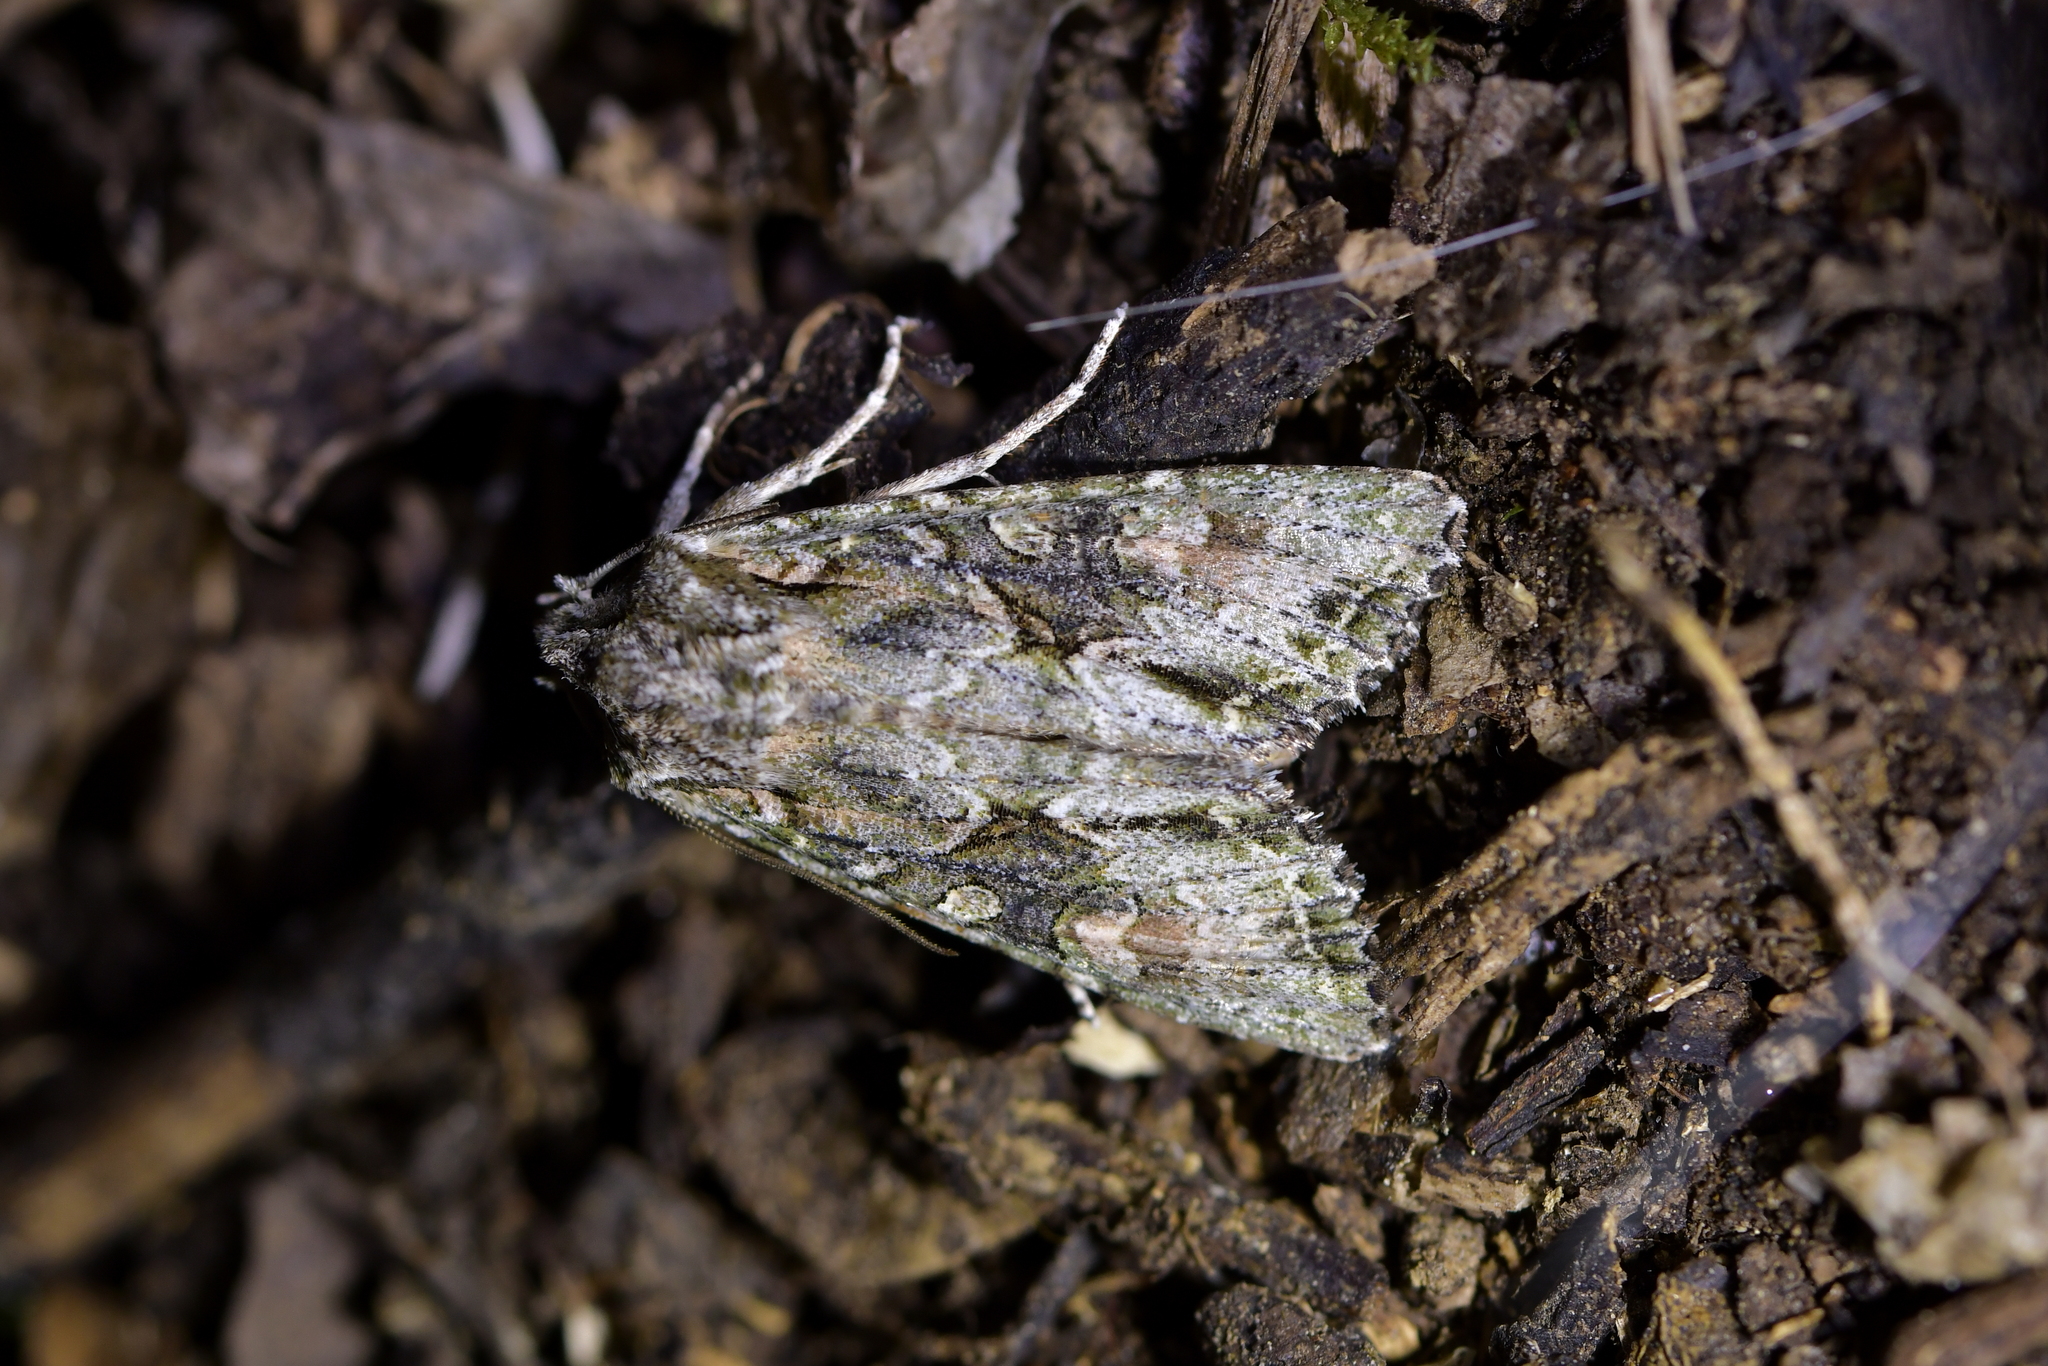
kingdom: Animalia
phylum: Arthropoda
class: Insecta
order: Lepidoptera
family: Noctuidae
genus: Ichneutica
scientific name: Ichneutica mutans
